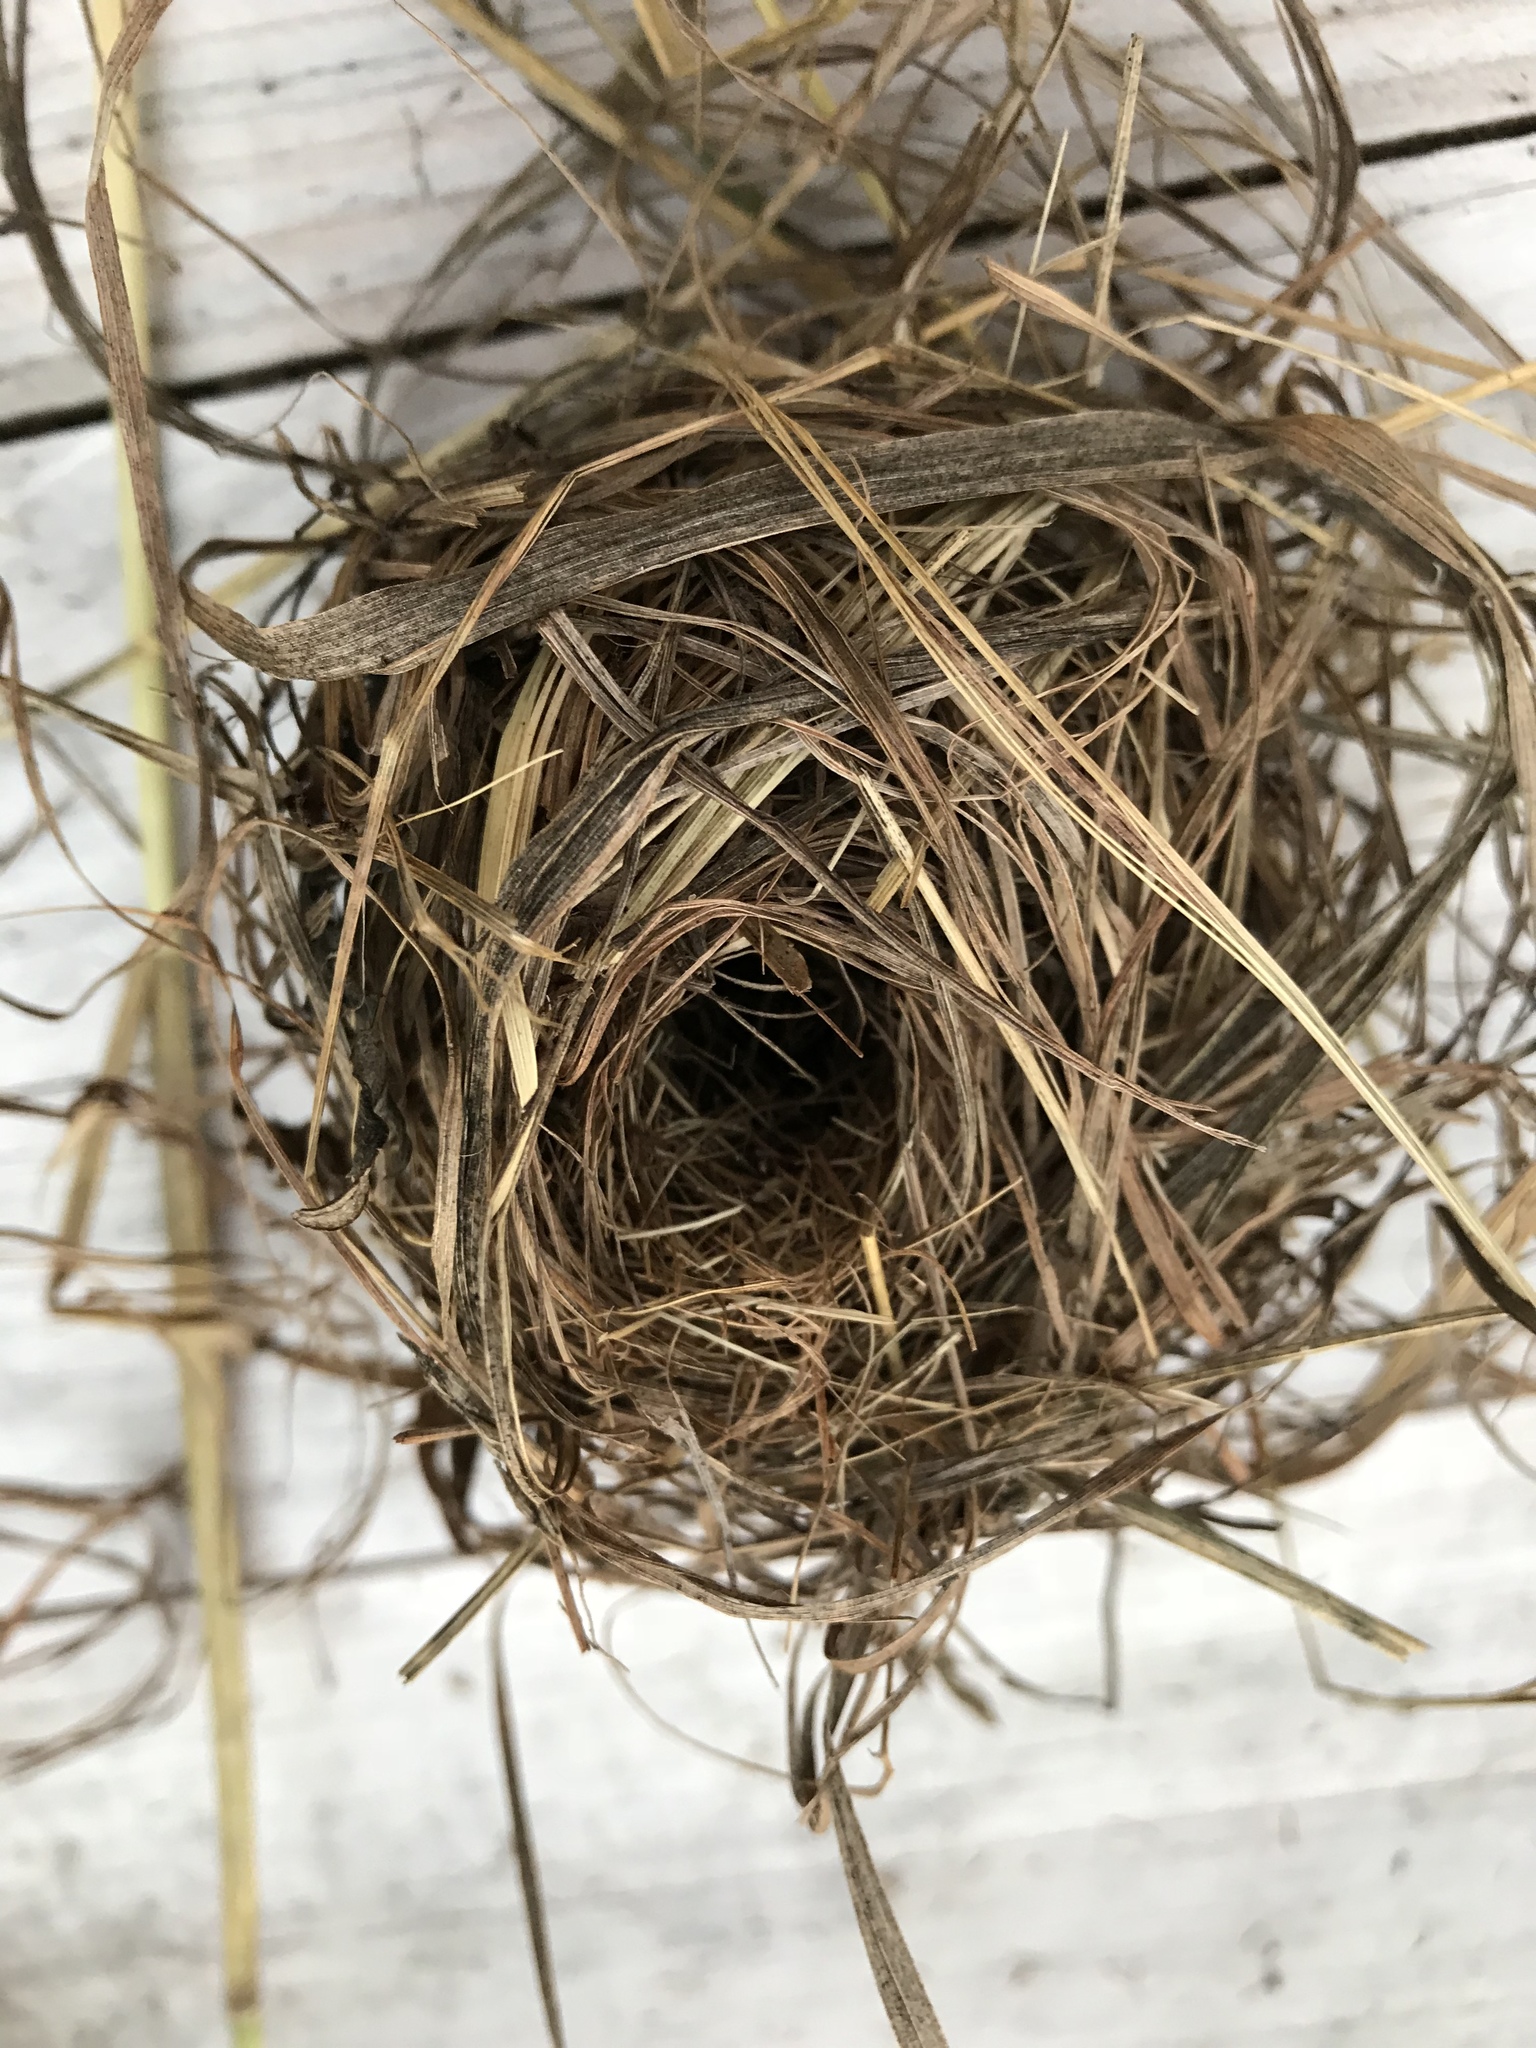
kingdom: Animalia
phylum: Chordata
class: Mammalia
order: Rodentia
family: Muridae
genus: Micromys
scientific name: Micromys minutus
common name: Harvest mouse
